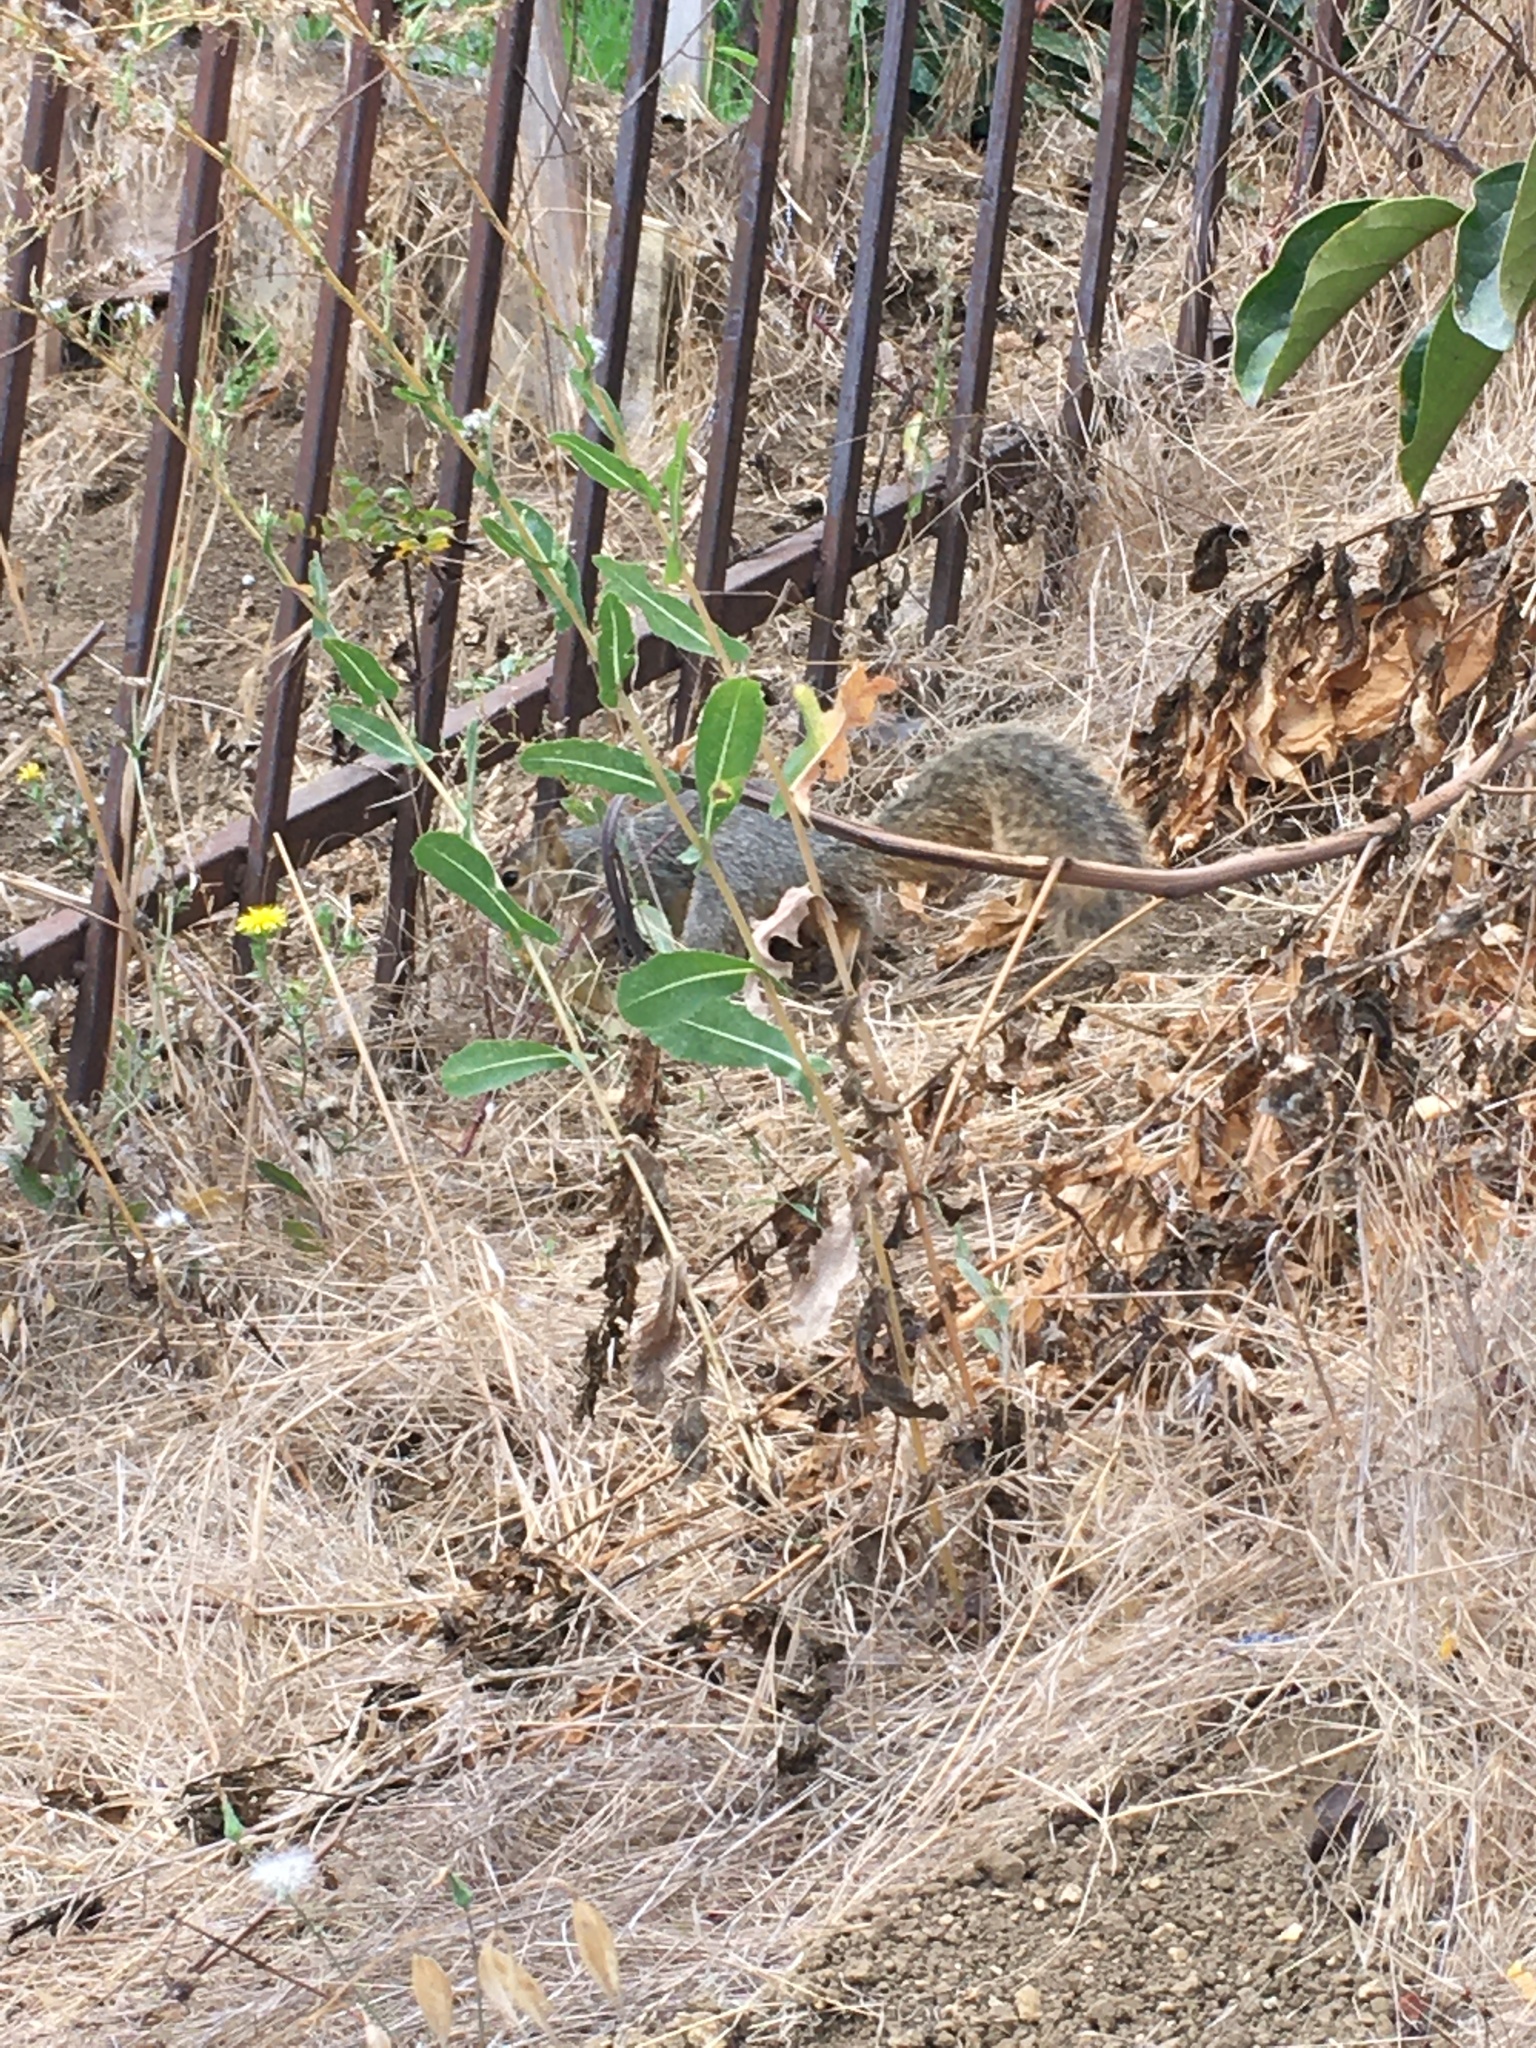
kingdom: Animalia
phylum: Chordata
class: Mammalia
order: Rodentia
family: Sciuridae
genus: Sciurus
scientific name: Sciurus niger
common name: Fox squirrel
